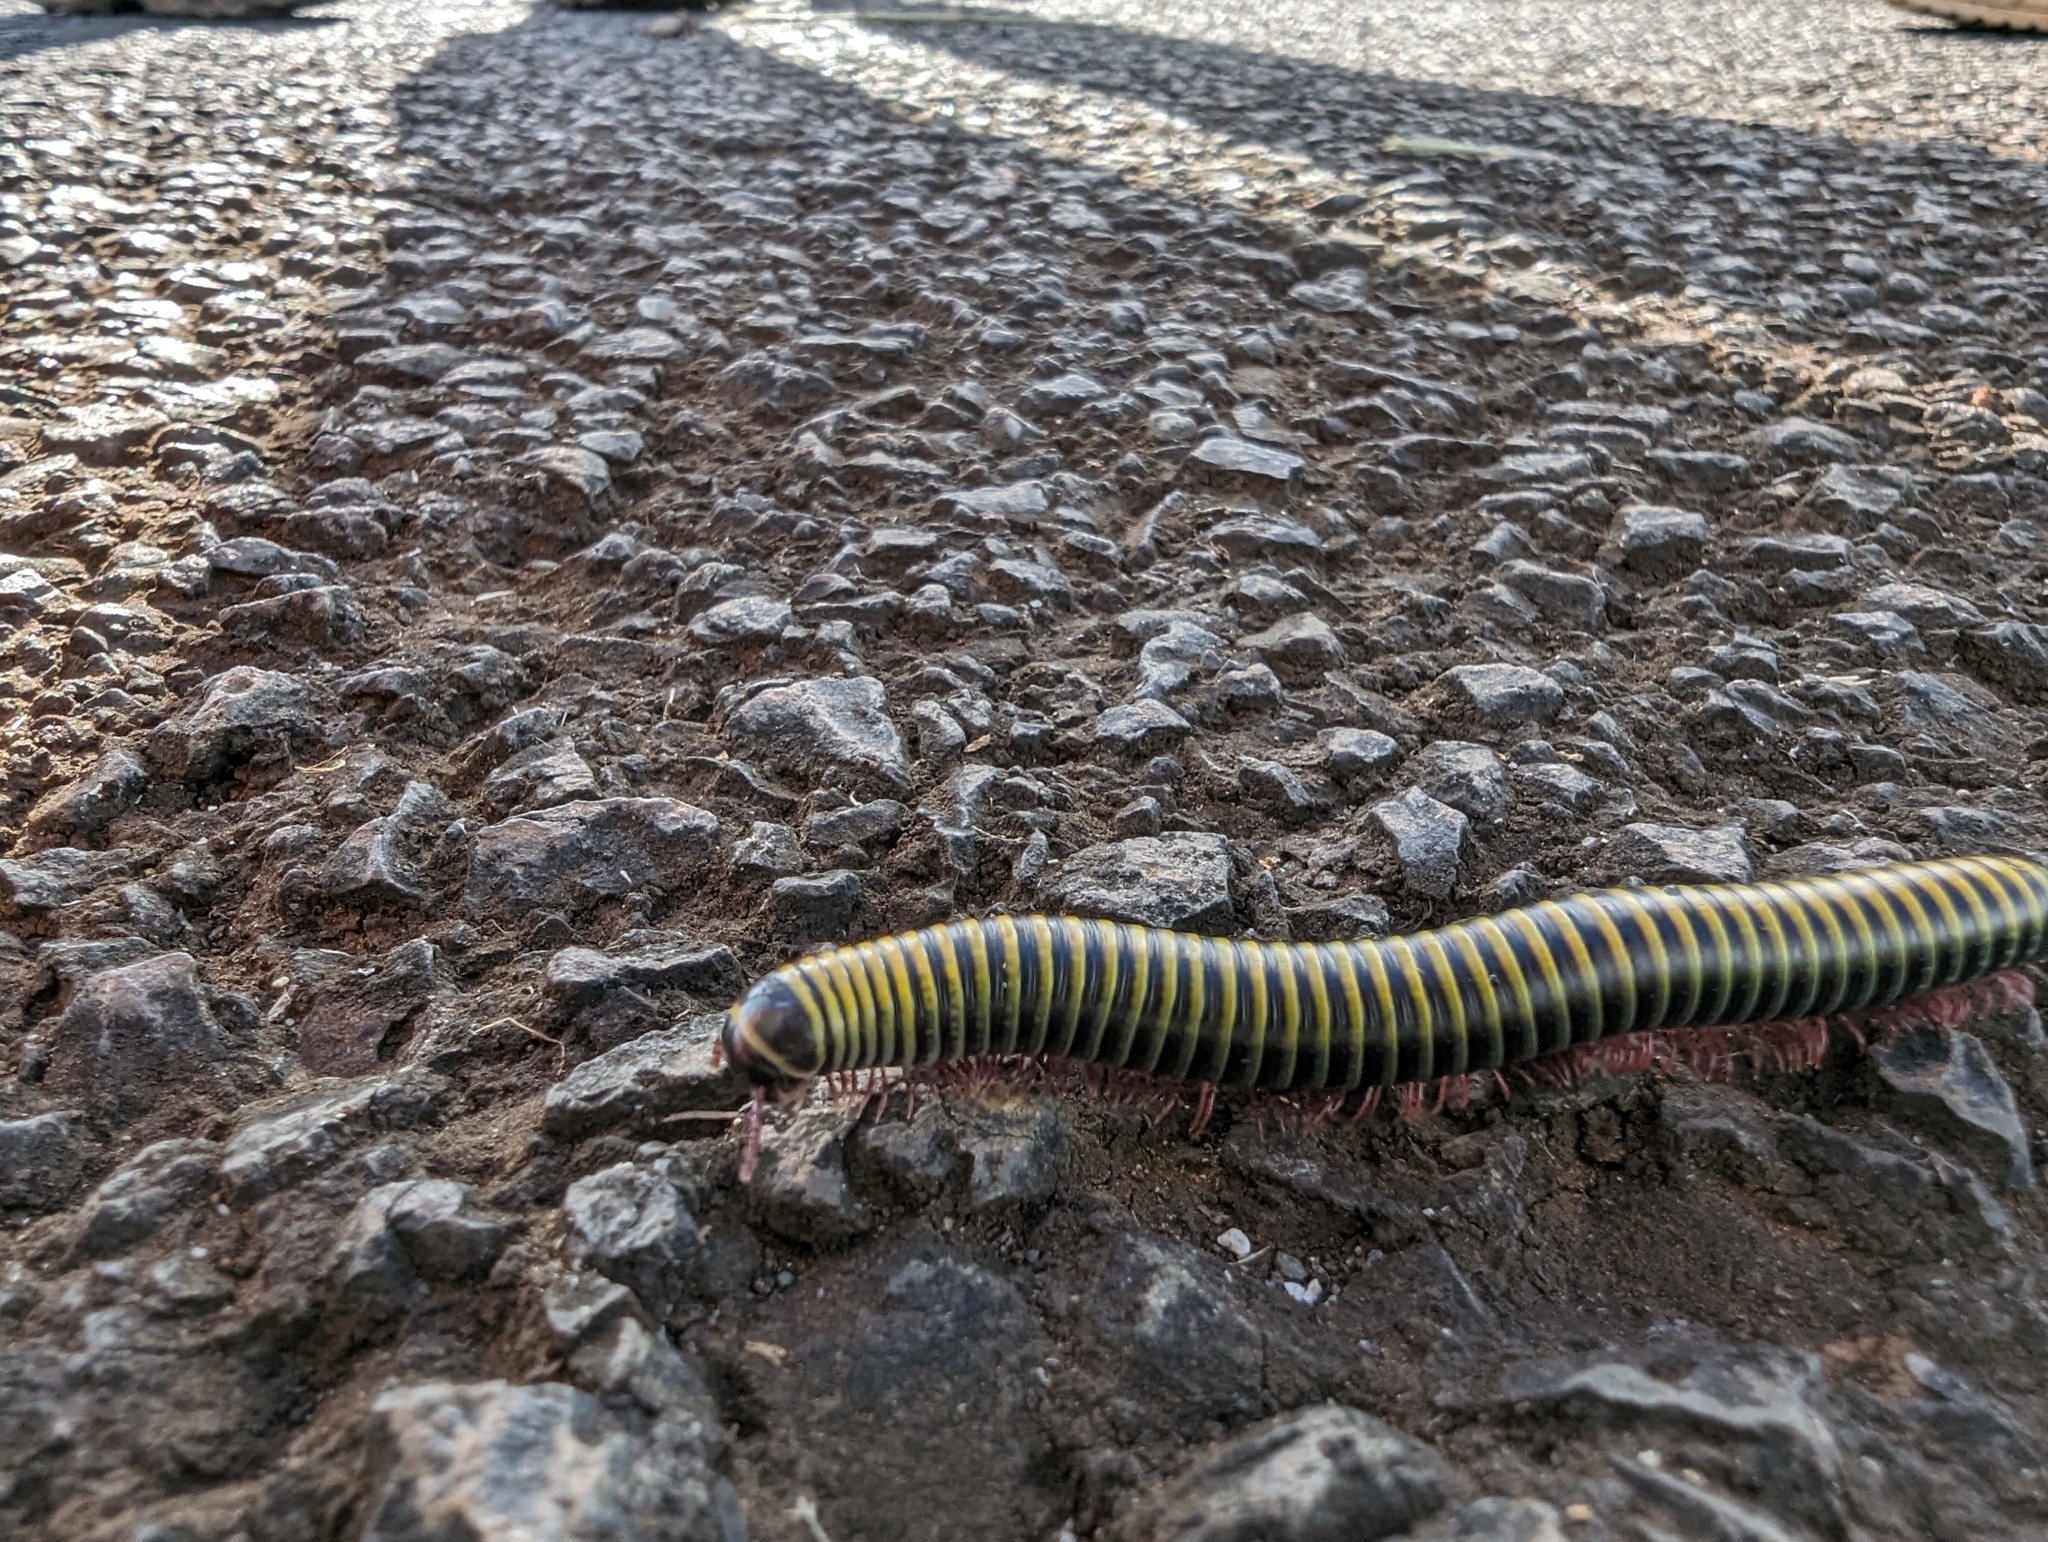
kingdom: Animalia
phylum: Arthropoda
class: Diplopoda
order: Spirobolida
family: Rhinocricidae
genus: Anadenobolus
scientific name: Anadenobolus monilicornis
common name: Caribbean millipede
